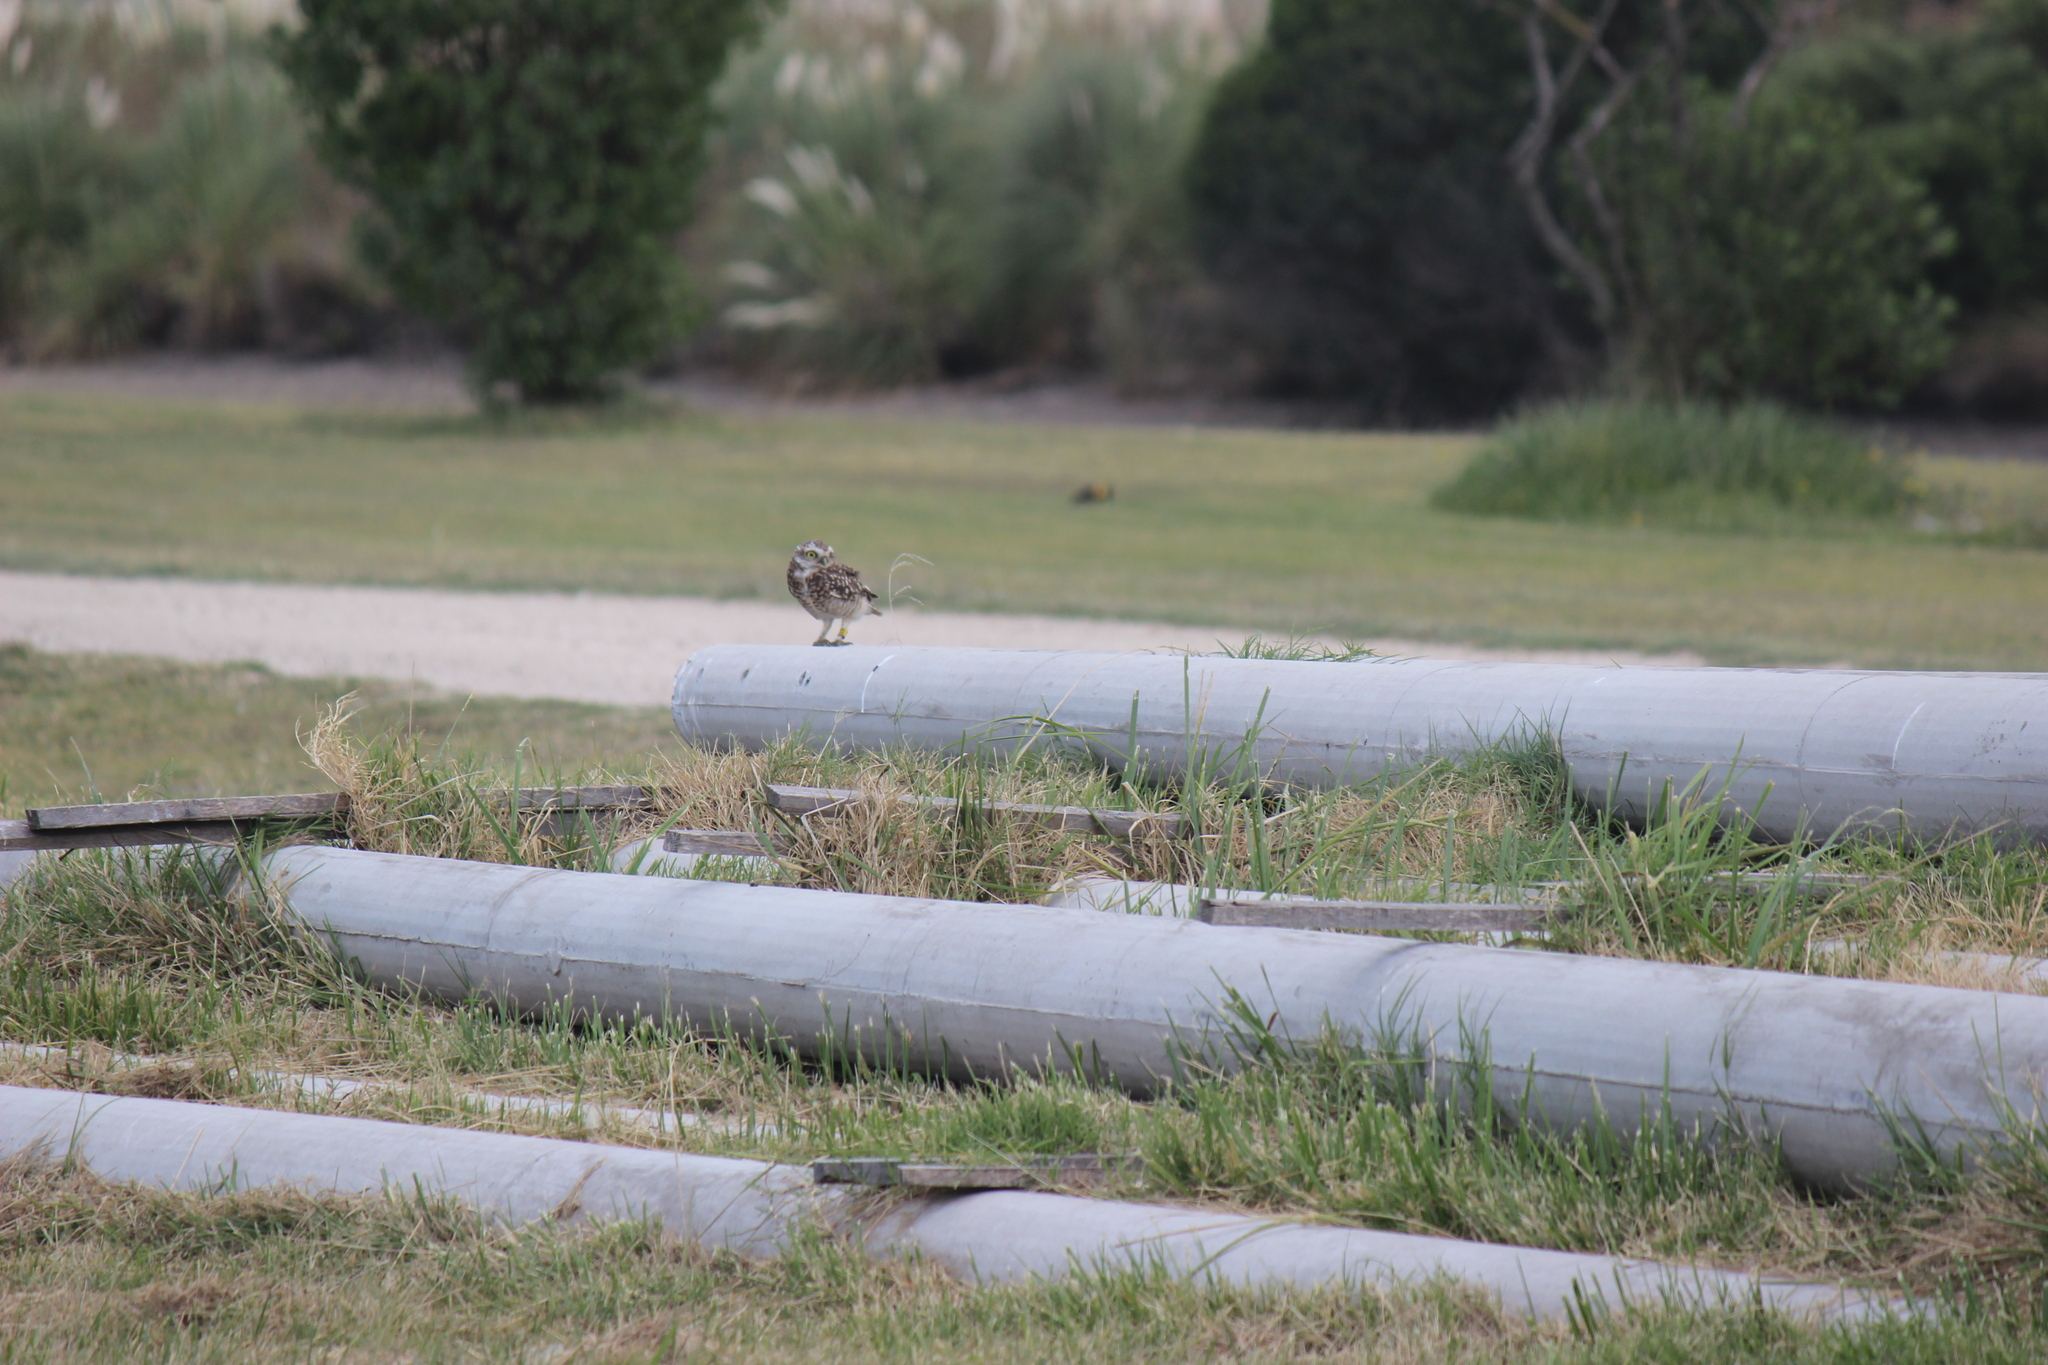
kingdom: Animalia
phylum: Chordata
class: Aves
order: Strigiformes
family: Strigidae
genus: Athene
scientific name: Athene cunicularia
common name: Burrowing owl
